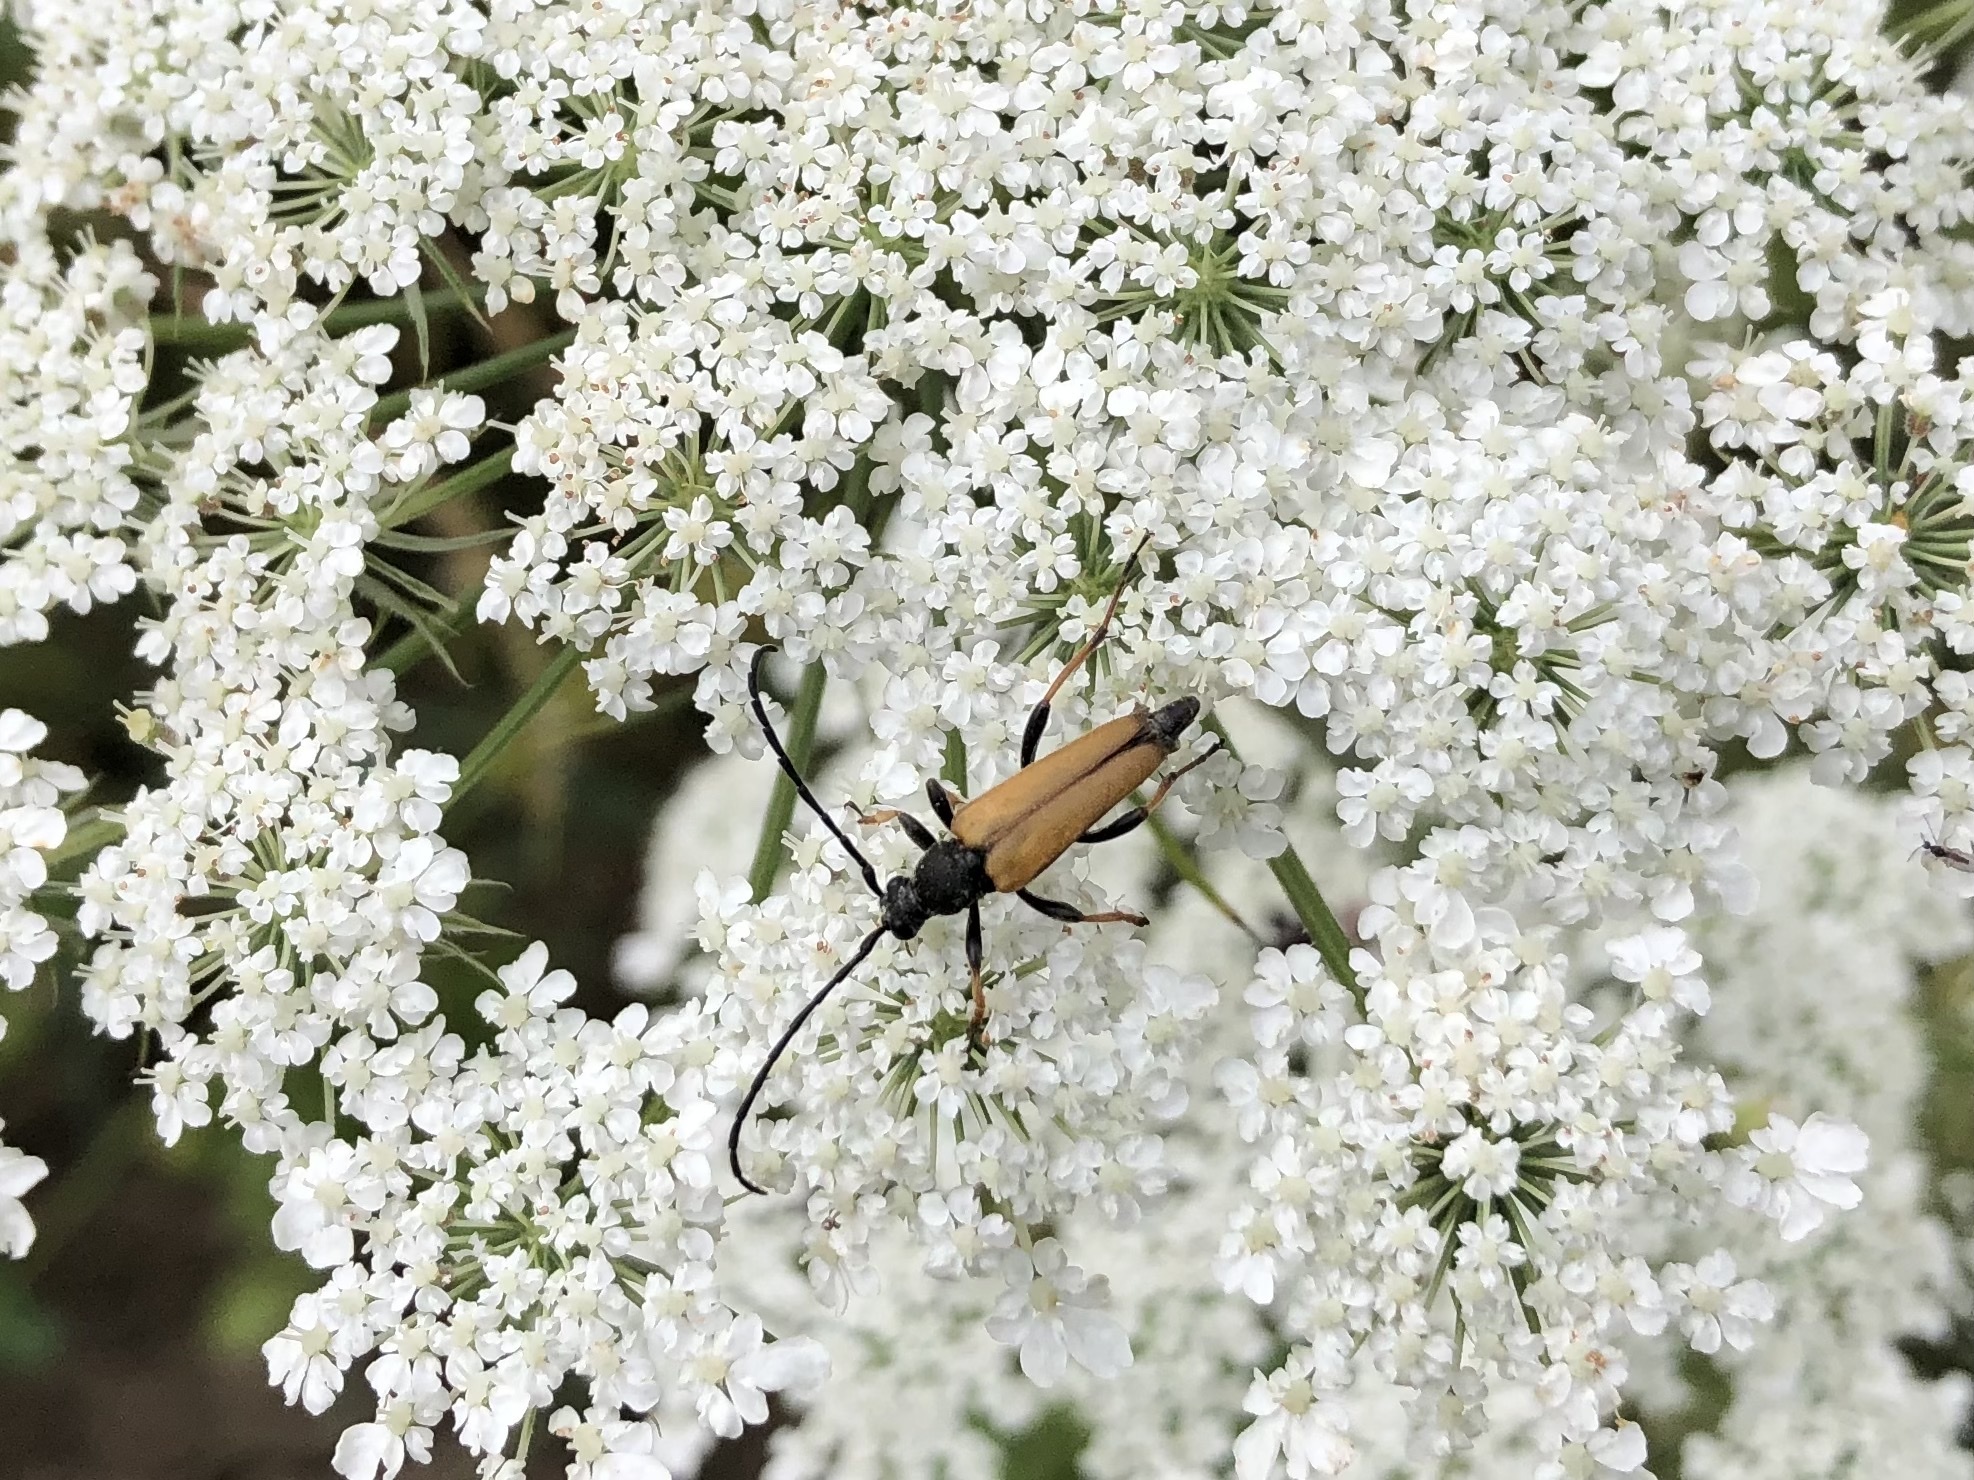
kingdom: Animalia
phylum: Arthropoda
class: Insecta
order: Coleoptera
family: Cerambycidae
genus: Stictoleptura
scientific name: Stictoleptura rubra
